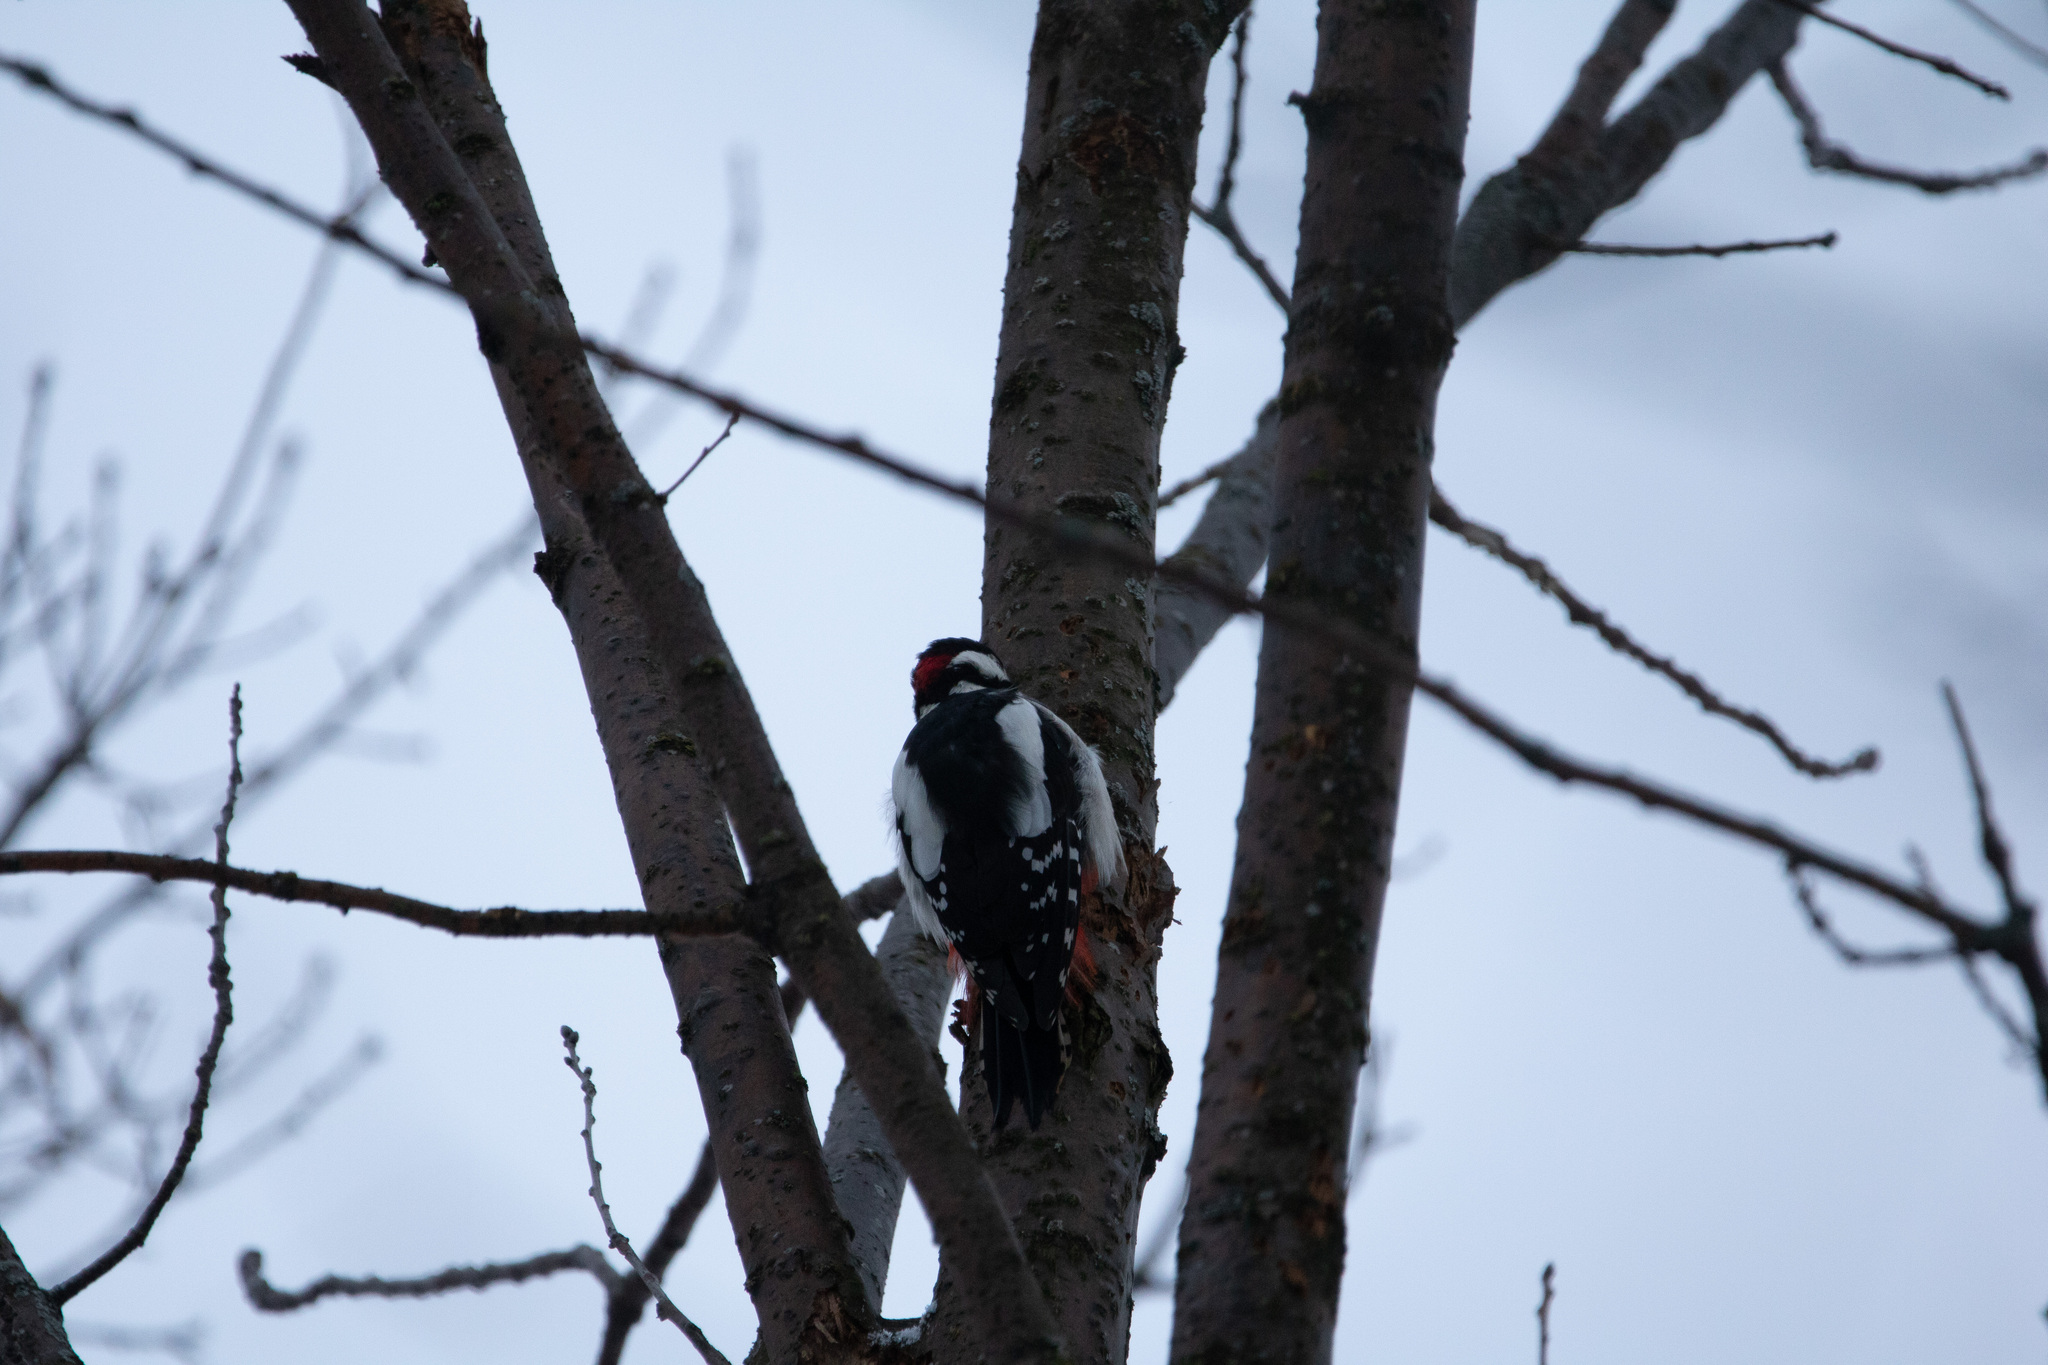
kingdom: Animalia
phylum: Chordata
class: Aves
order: Piciformes
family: Picidae
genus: Dendrocopos
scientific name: Dendrocopos major
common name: Great spotted woodpecker
